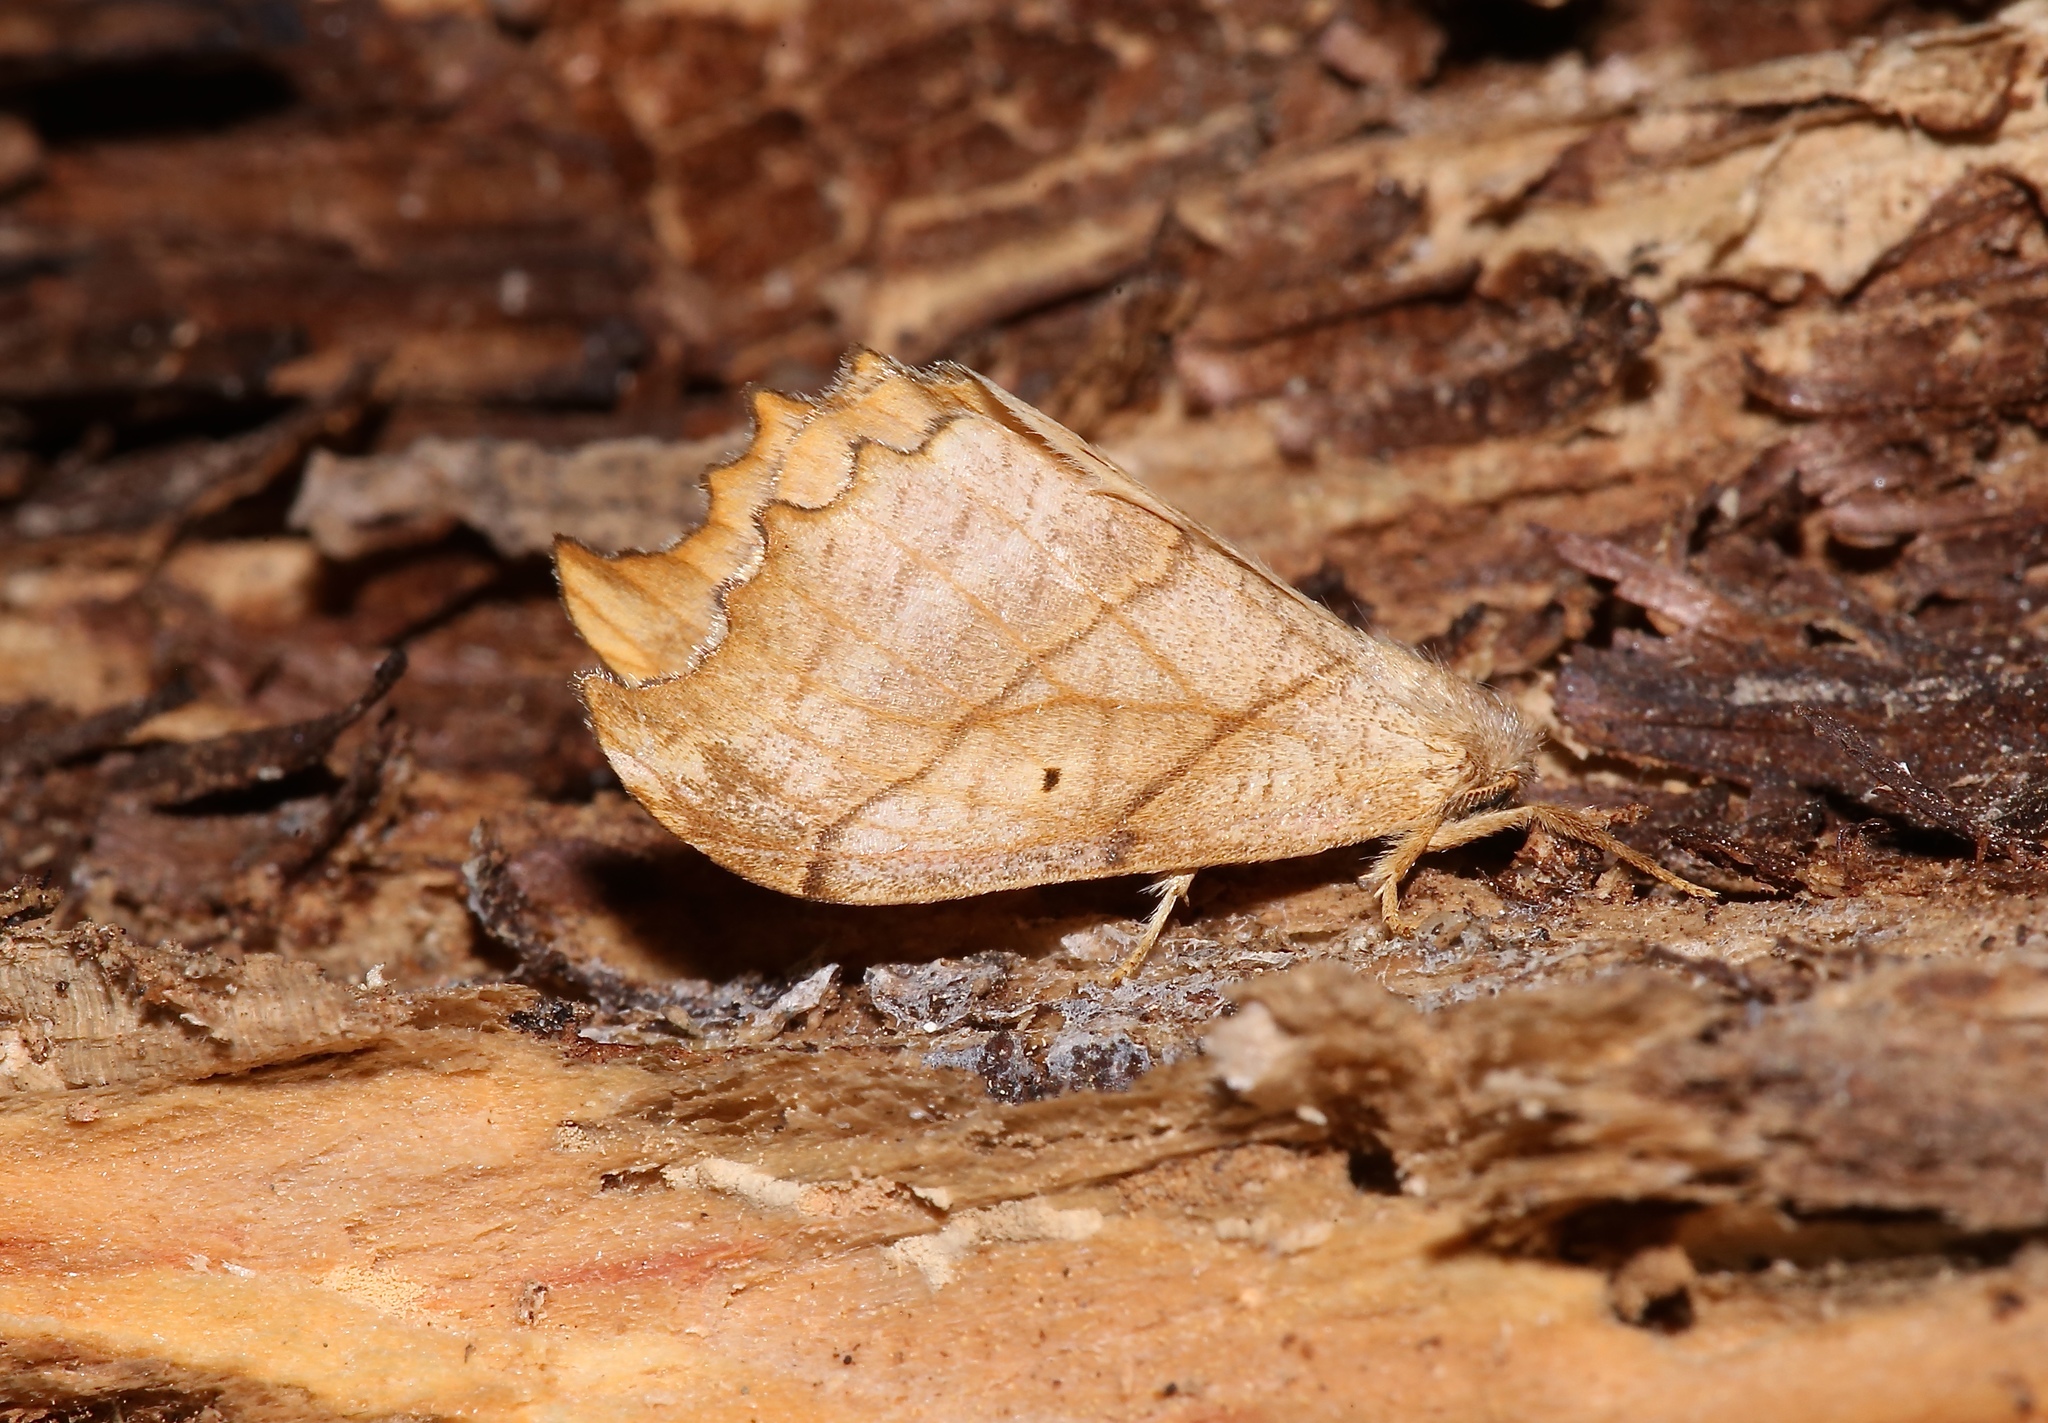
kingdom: Animalia
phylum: Arthropoda
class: Insecta
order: Lepidoptera
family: Drepanidae
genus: Falcaria
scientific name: Falcaria bilineata
